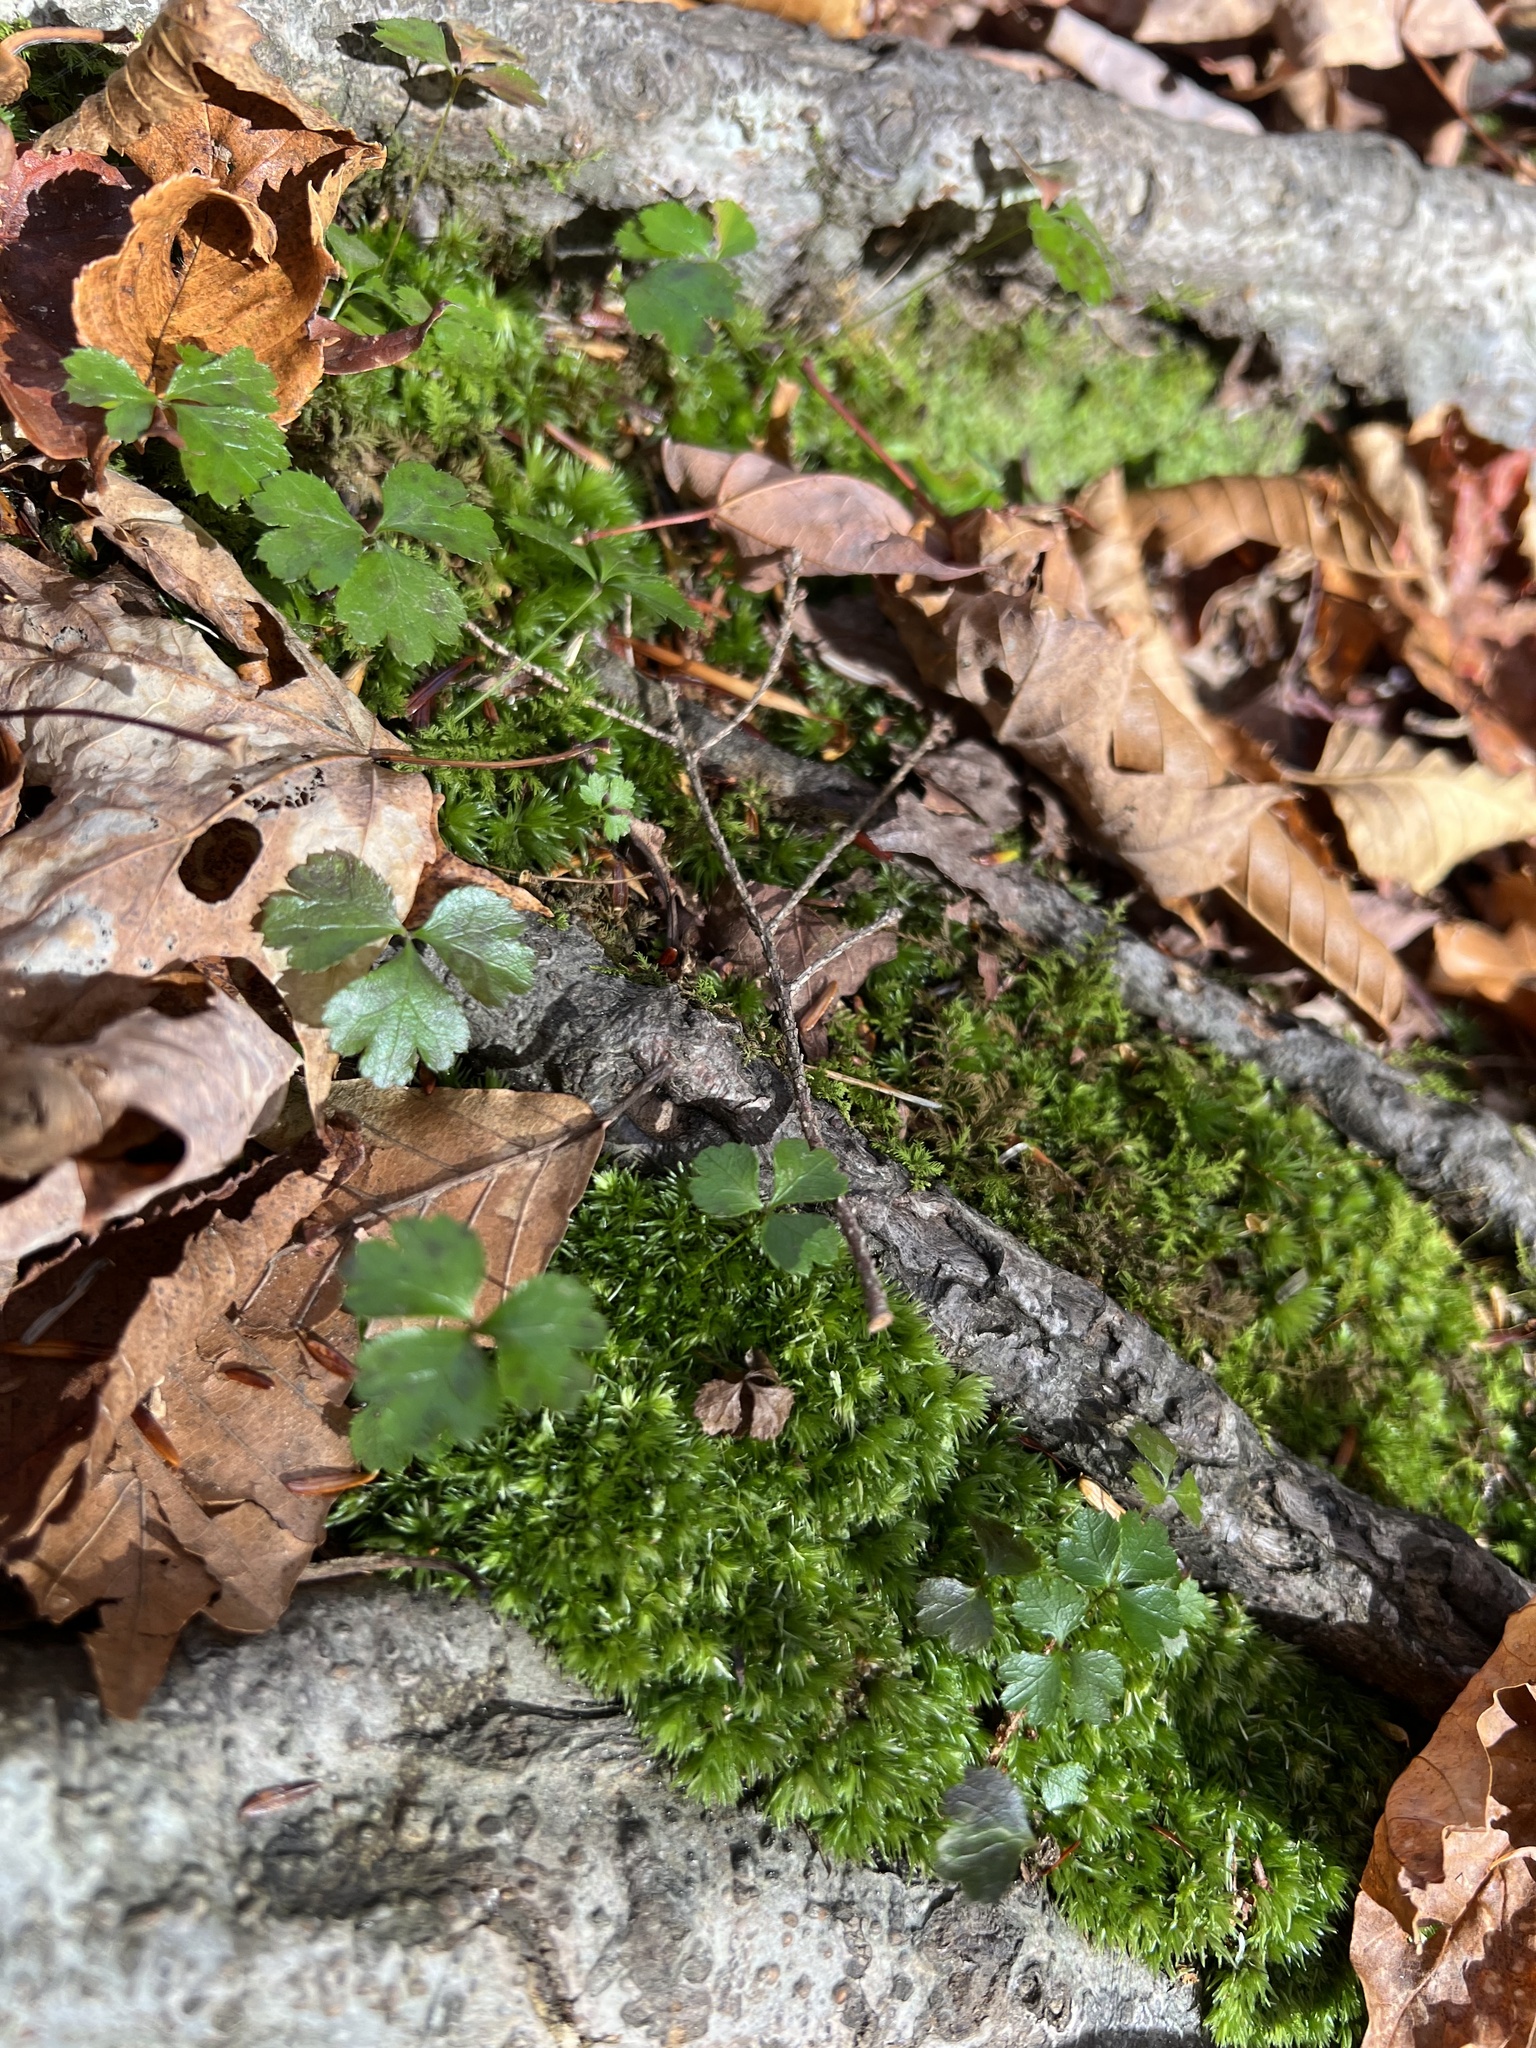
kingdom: Plantae
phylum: Tracheophyta
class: Magnoliopsida
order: Ranunculales
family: Ranunculaceae
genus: Coptis
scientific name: Coptis trifolia
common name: Canker-root
